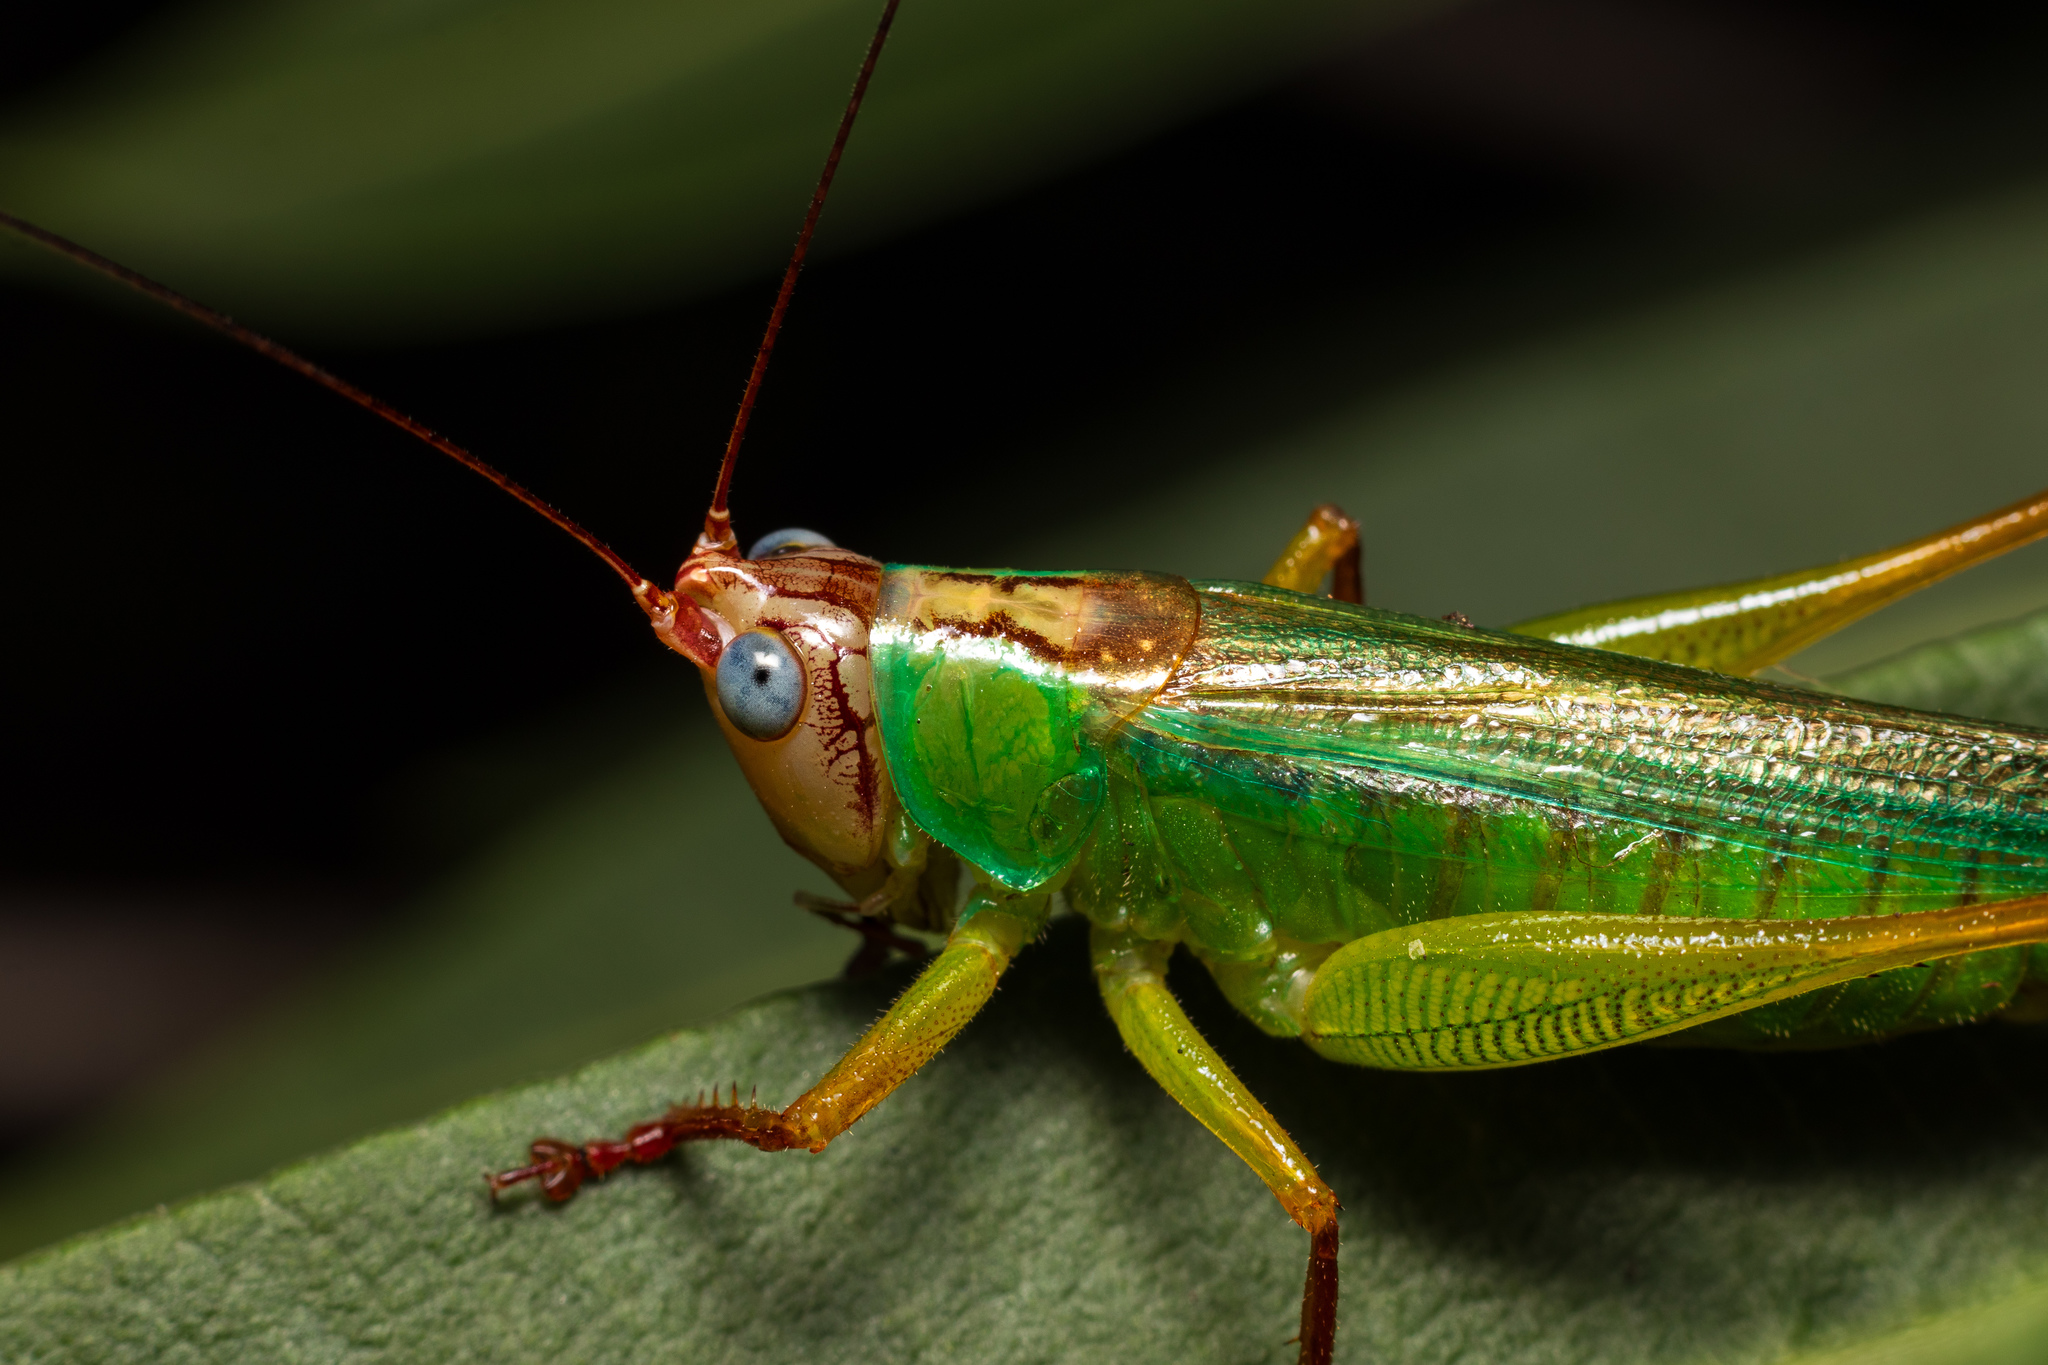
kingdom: Animalia
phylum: Arthropoda
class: Insecta
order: Orthoptera
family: Tettigoniidae
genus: Orchelimum
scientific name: Orchelimum pulchellum
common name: Handsome meadow katydid
